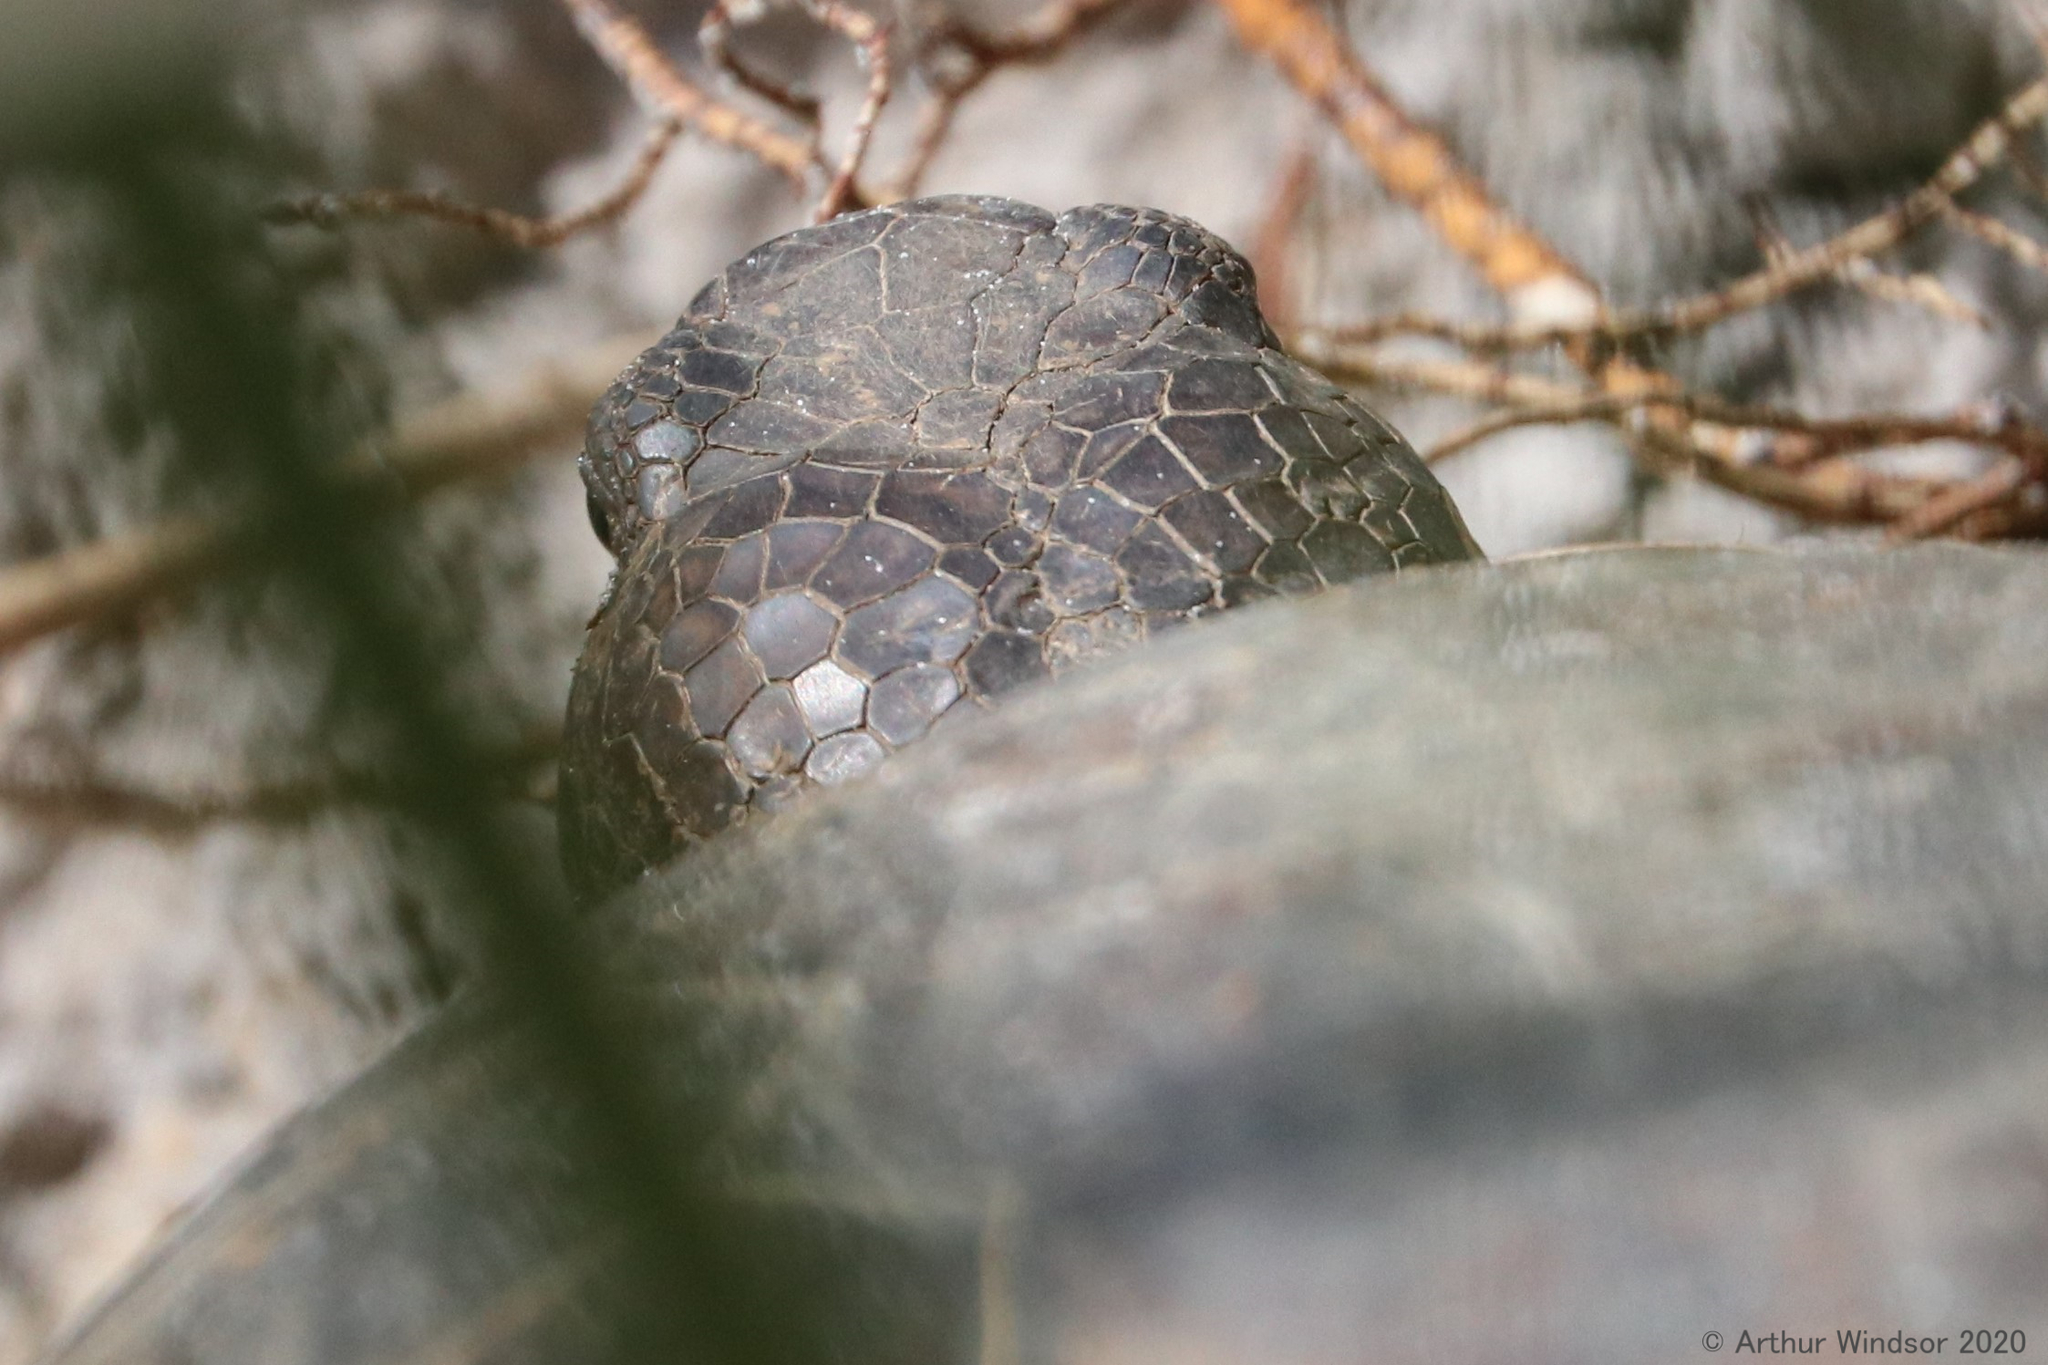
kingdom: Animalia
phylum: Chordata
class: Testudines
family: Testudinidae
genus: Gopherus
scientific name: Gopherus polyphemus
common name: Florida gopher tortoise
